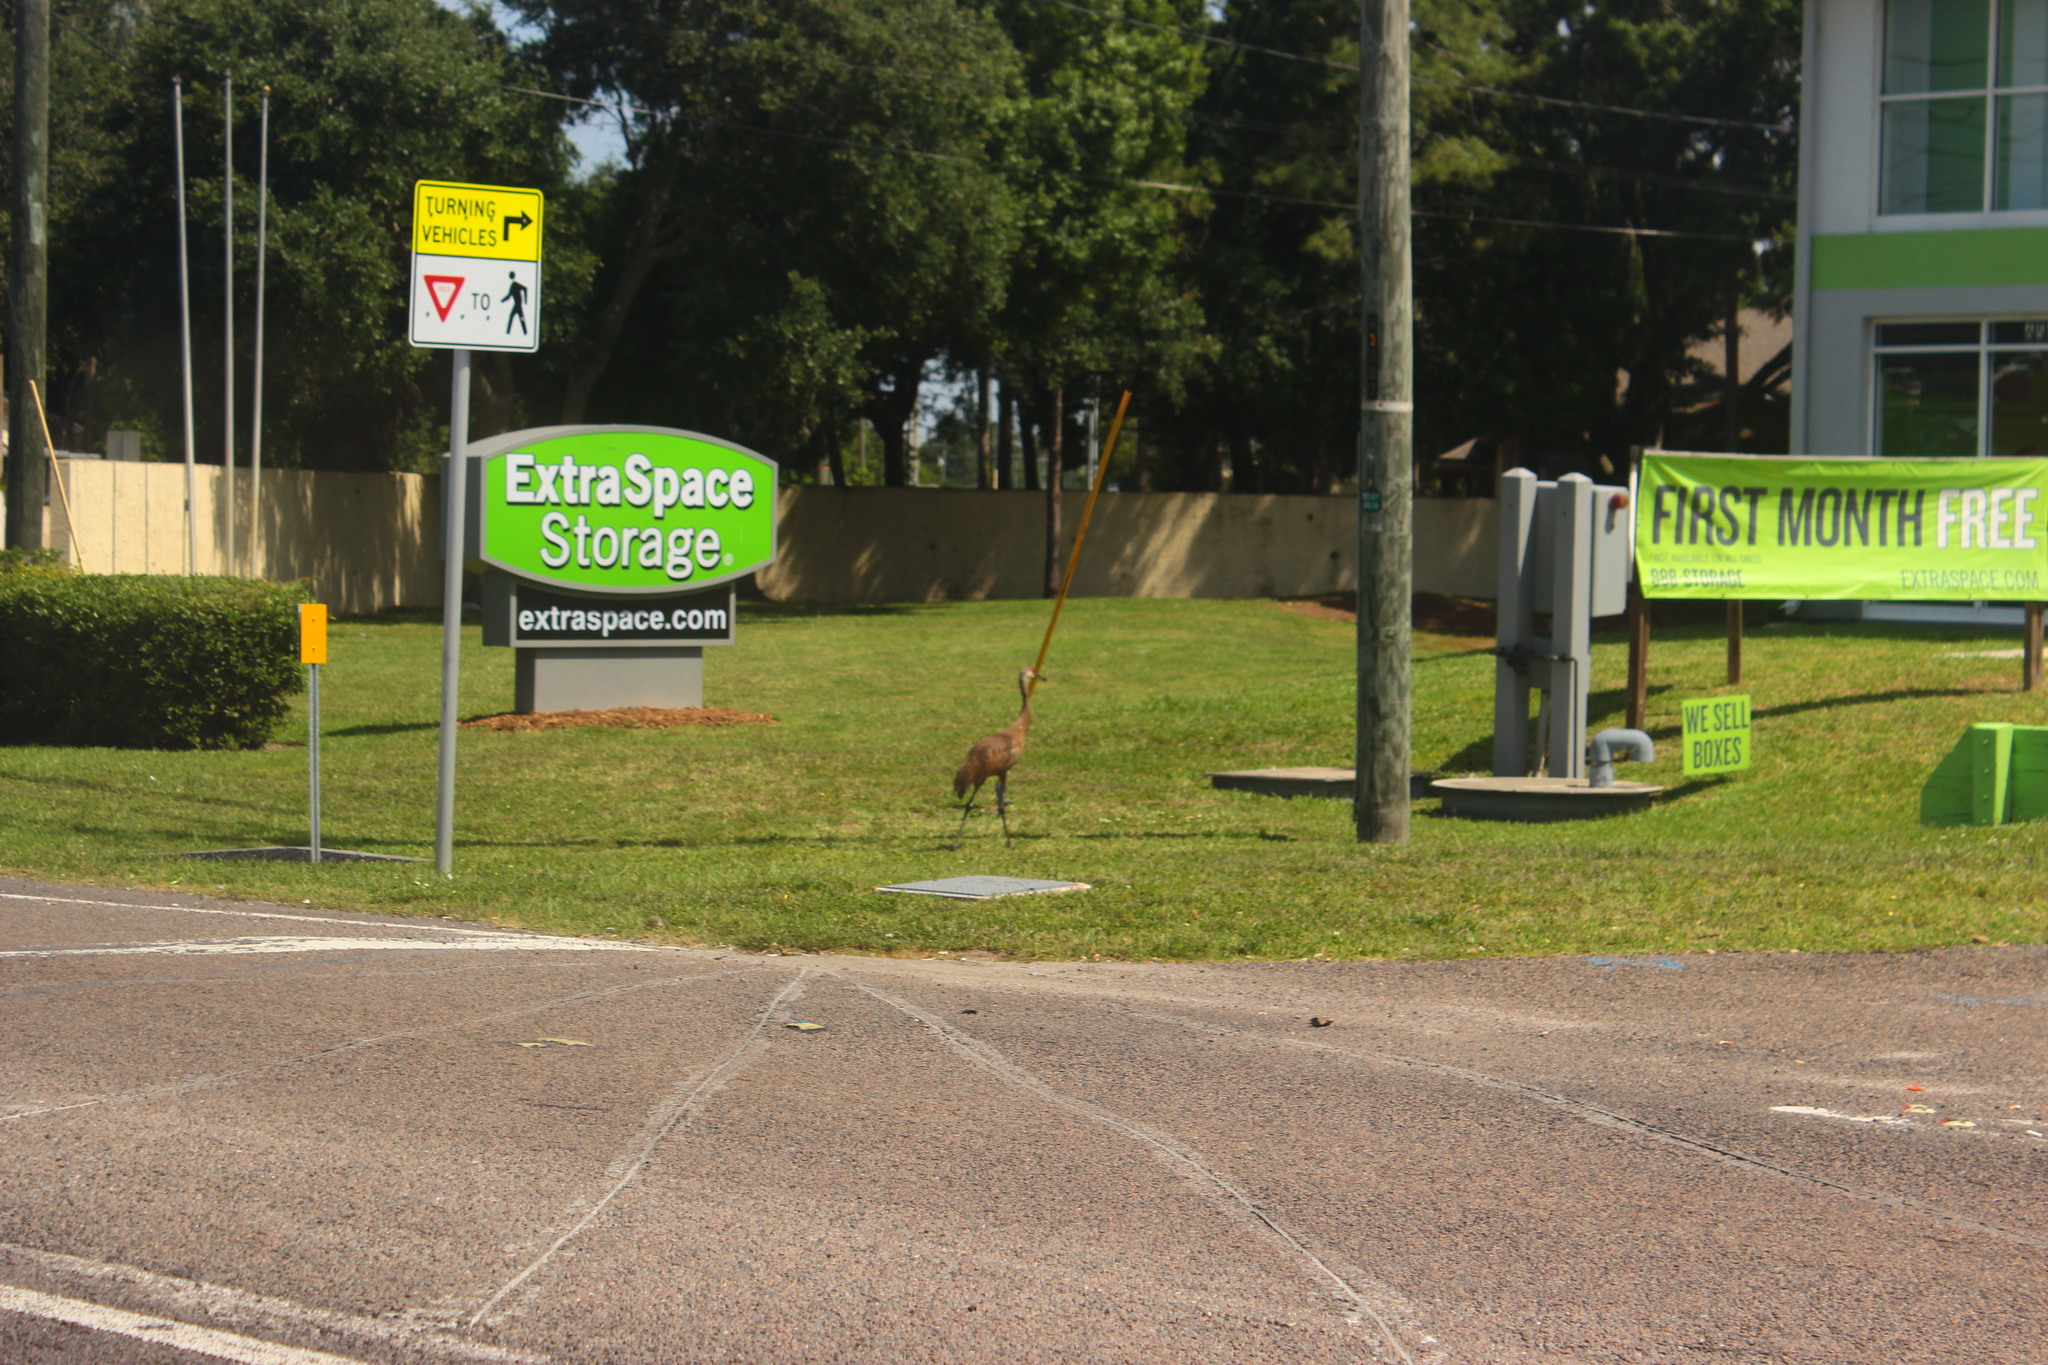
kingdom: Animalia
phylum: Chordata
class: Aves
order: Gruiformes
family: Gruidae
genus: Grus
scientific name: Grus canadensis
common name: Sandhill crane
